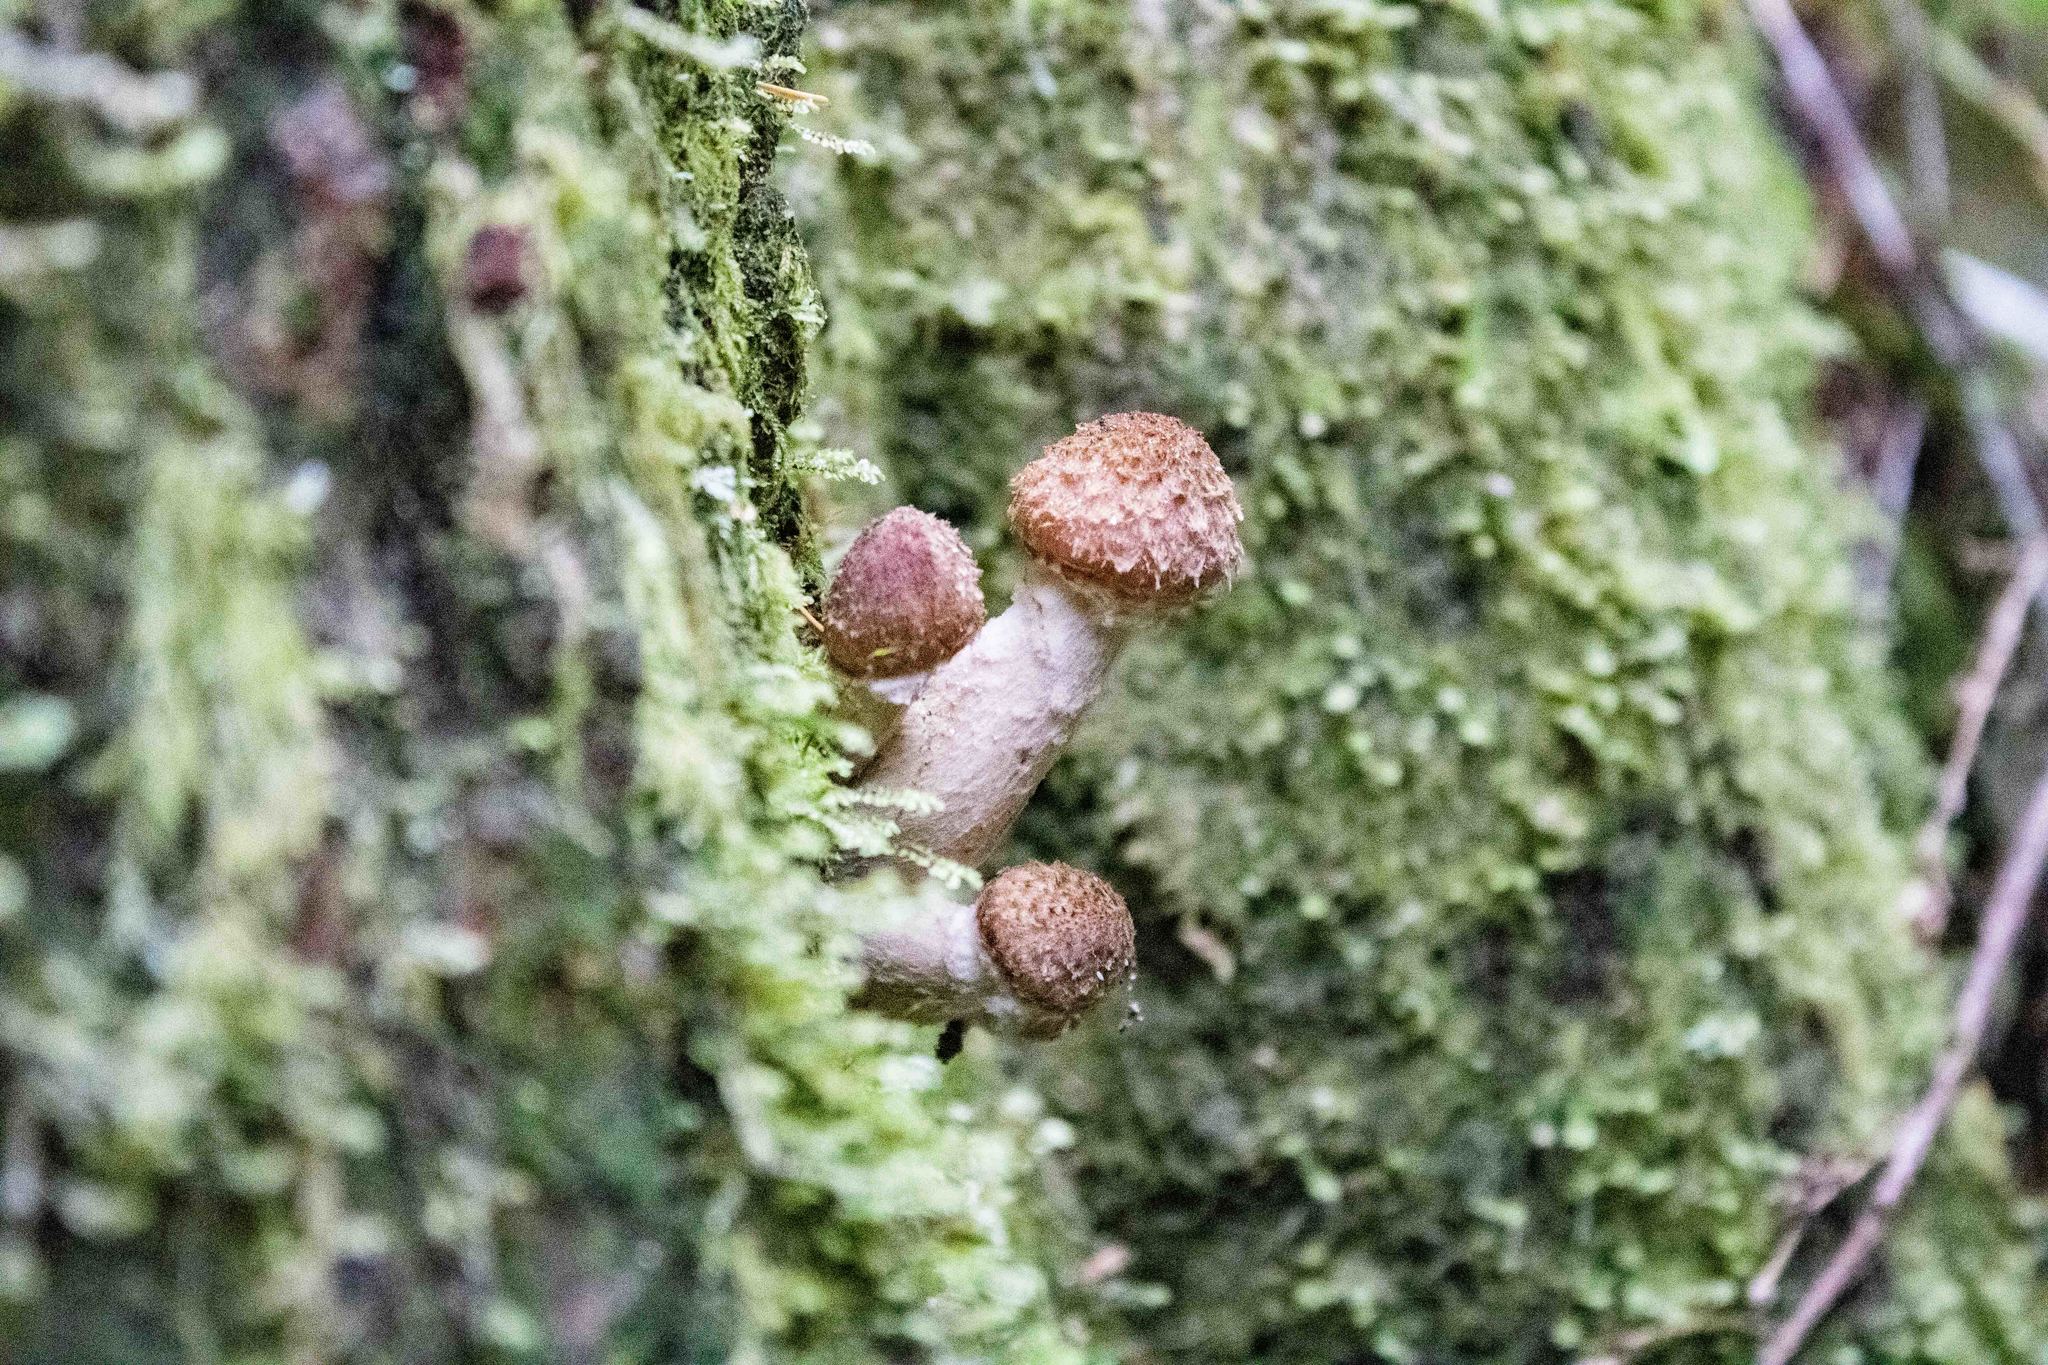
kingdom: Fungi
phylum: Basidiomycota
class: Agaricomycetes
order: Agaricales
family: Physalacriaceae
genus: Armillaria
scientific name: Armillaria ostoyae
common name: Dark honey fungus
